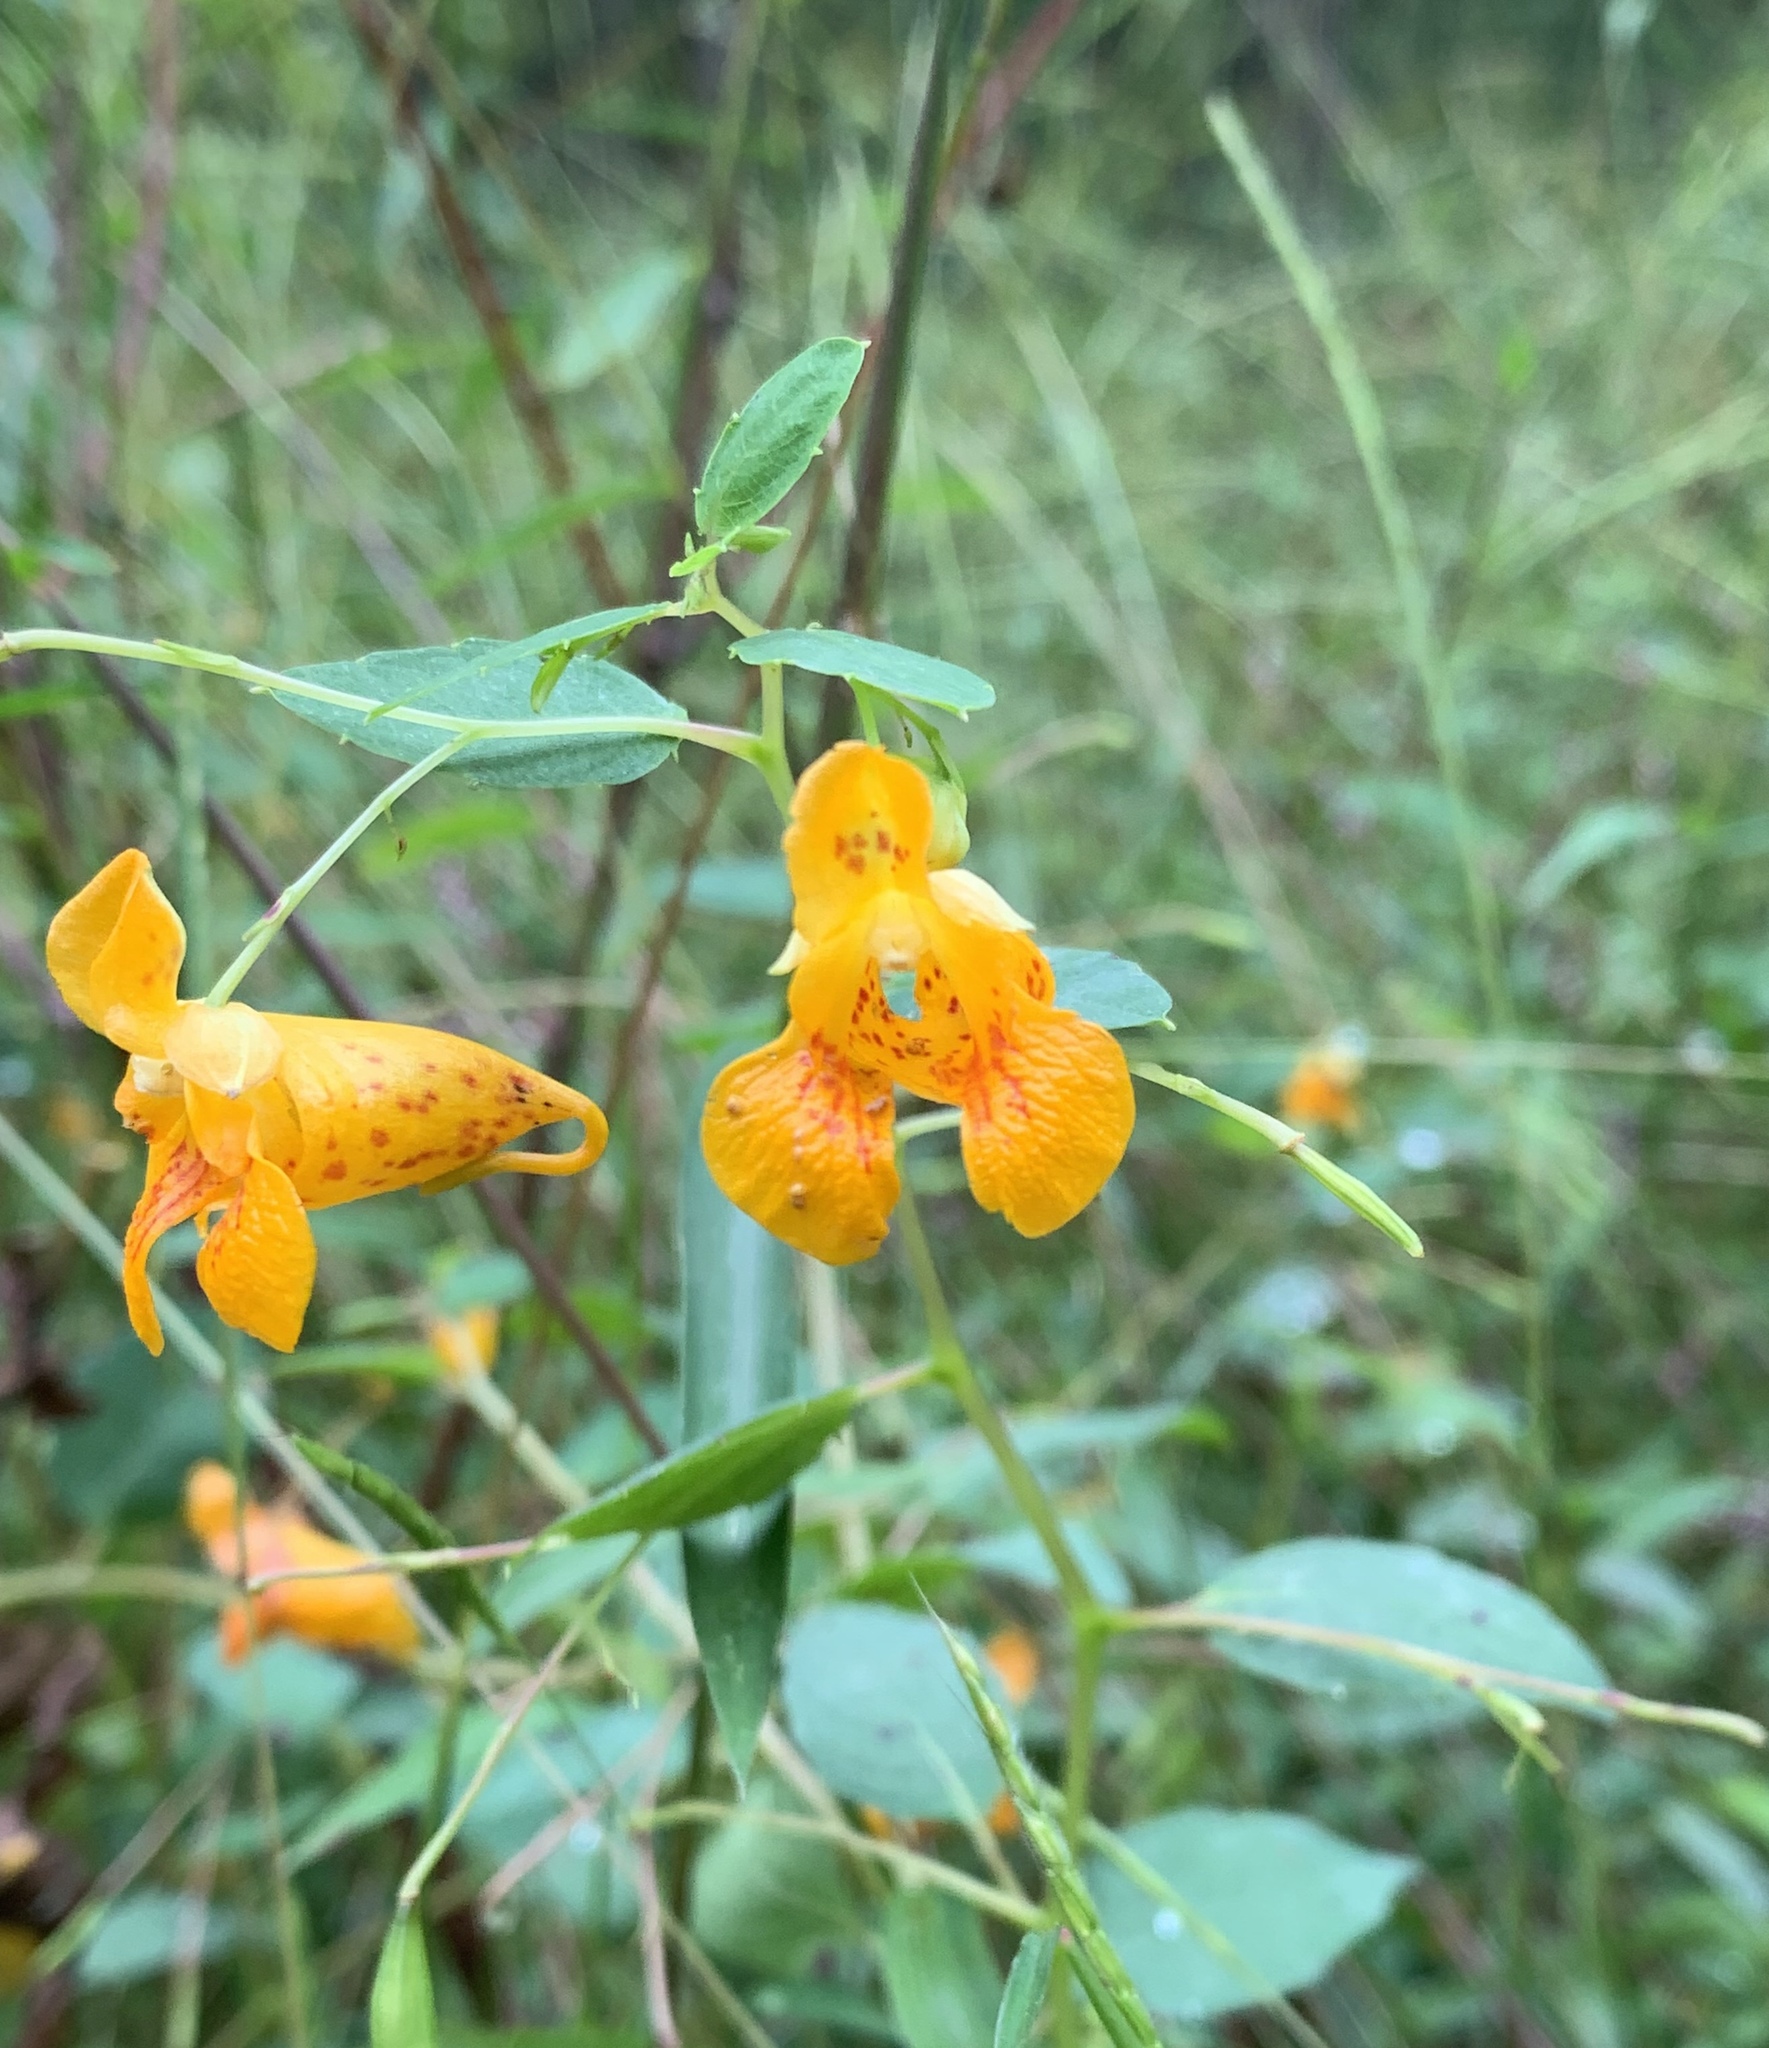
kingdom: Plantae
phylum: Tracheophyta
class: Magnoliopsida
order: Ericales
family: Balsaminaceae
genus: Impatiens
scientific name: Impatiens capensis
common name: Orange balsam
